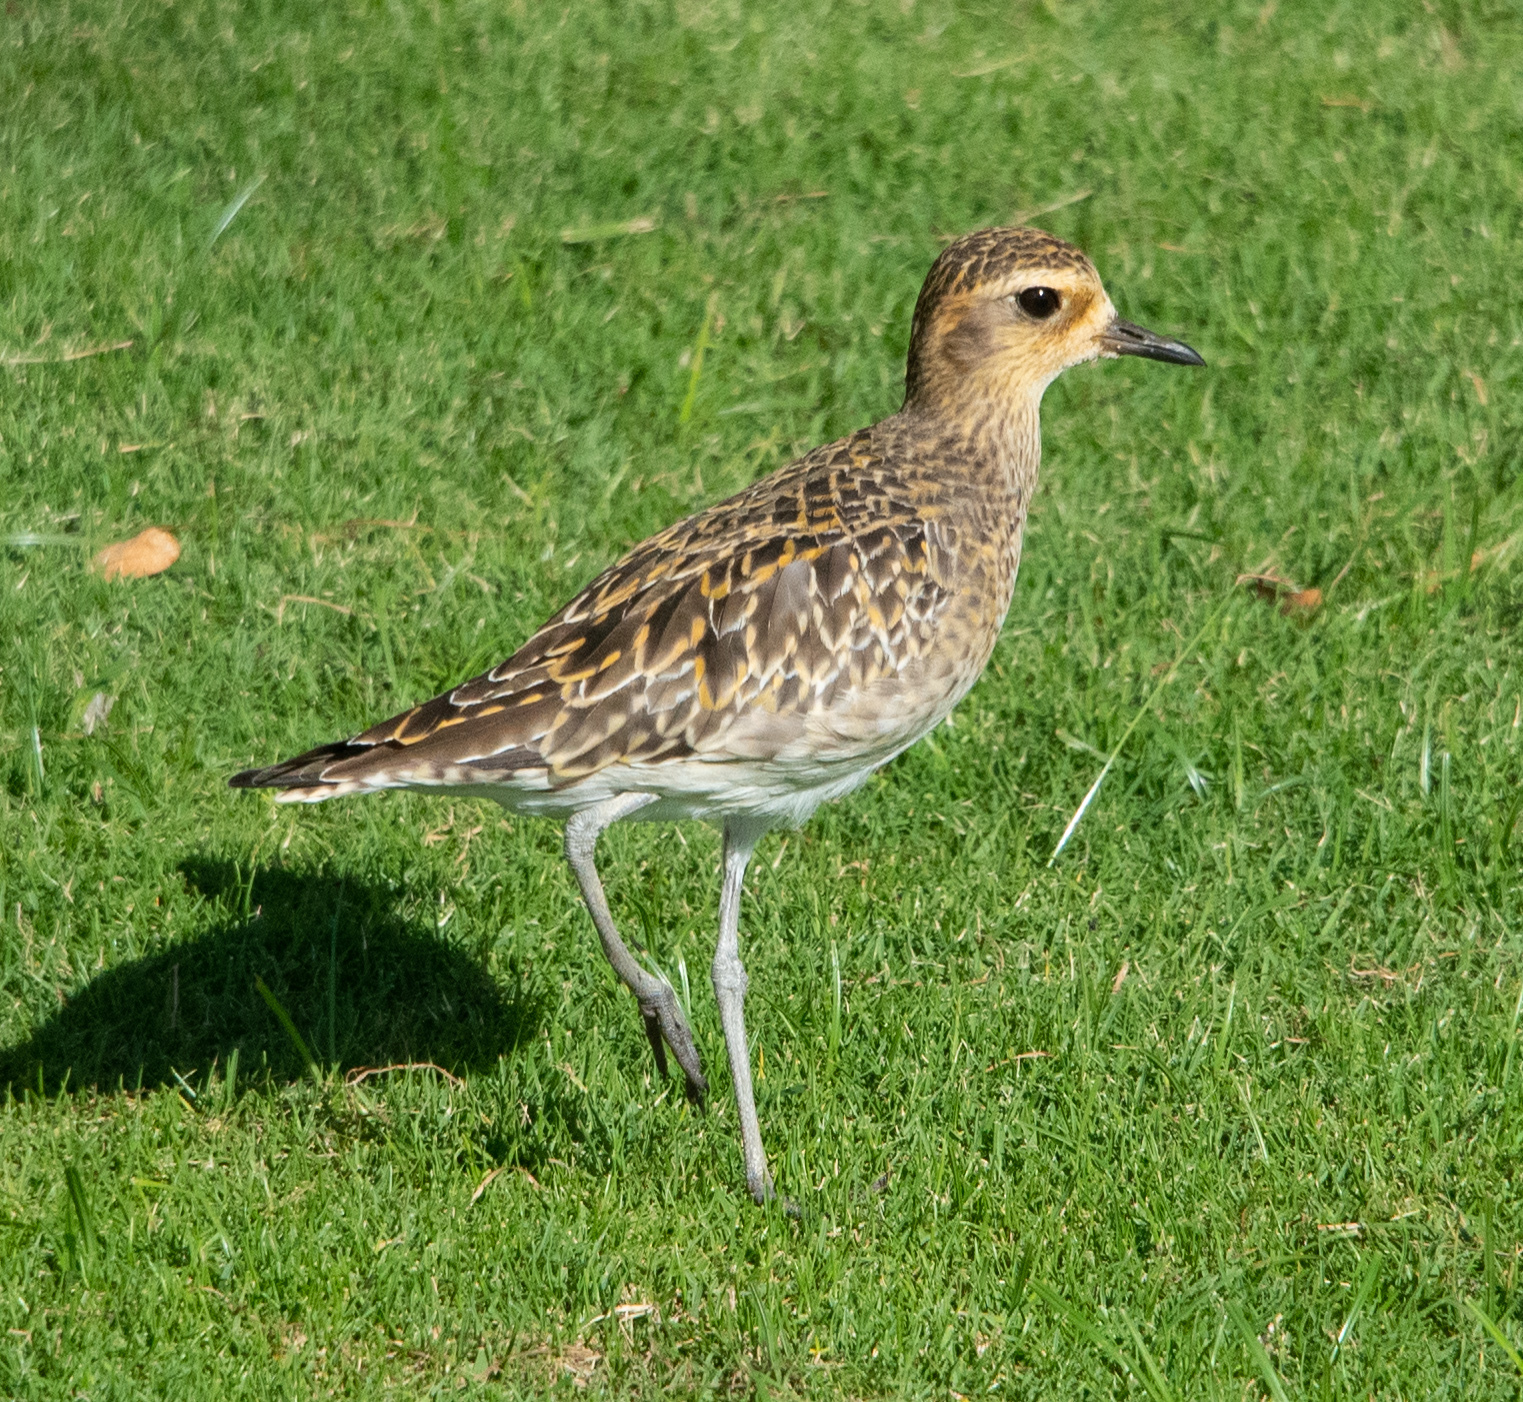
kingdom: Animalia
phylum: Chordata
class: Aves
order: Charadriiformes
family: Charadriidae
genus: Pluvialis
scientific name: Pluvialis fulva
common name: Pacific golden plover
